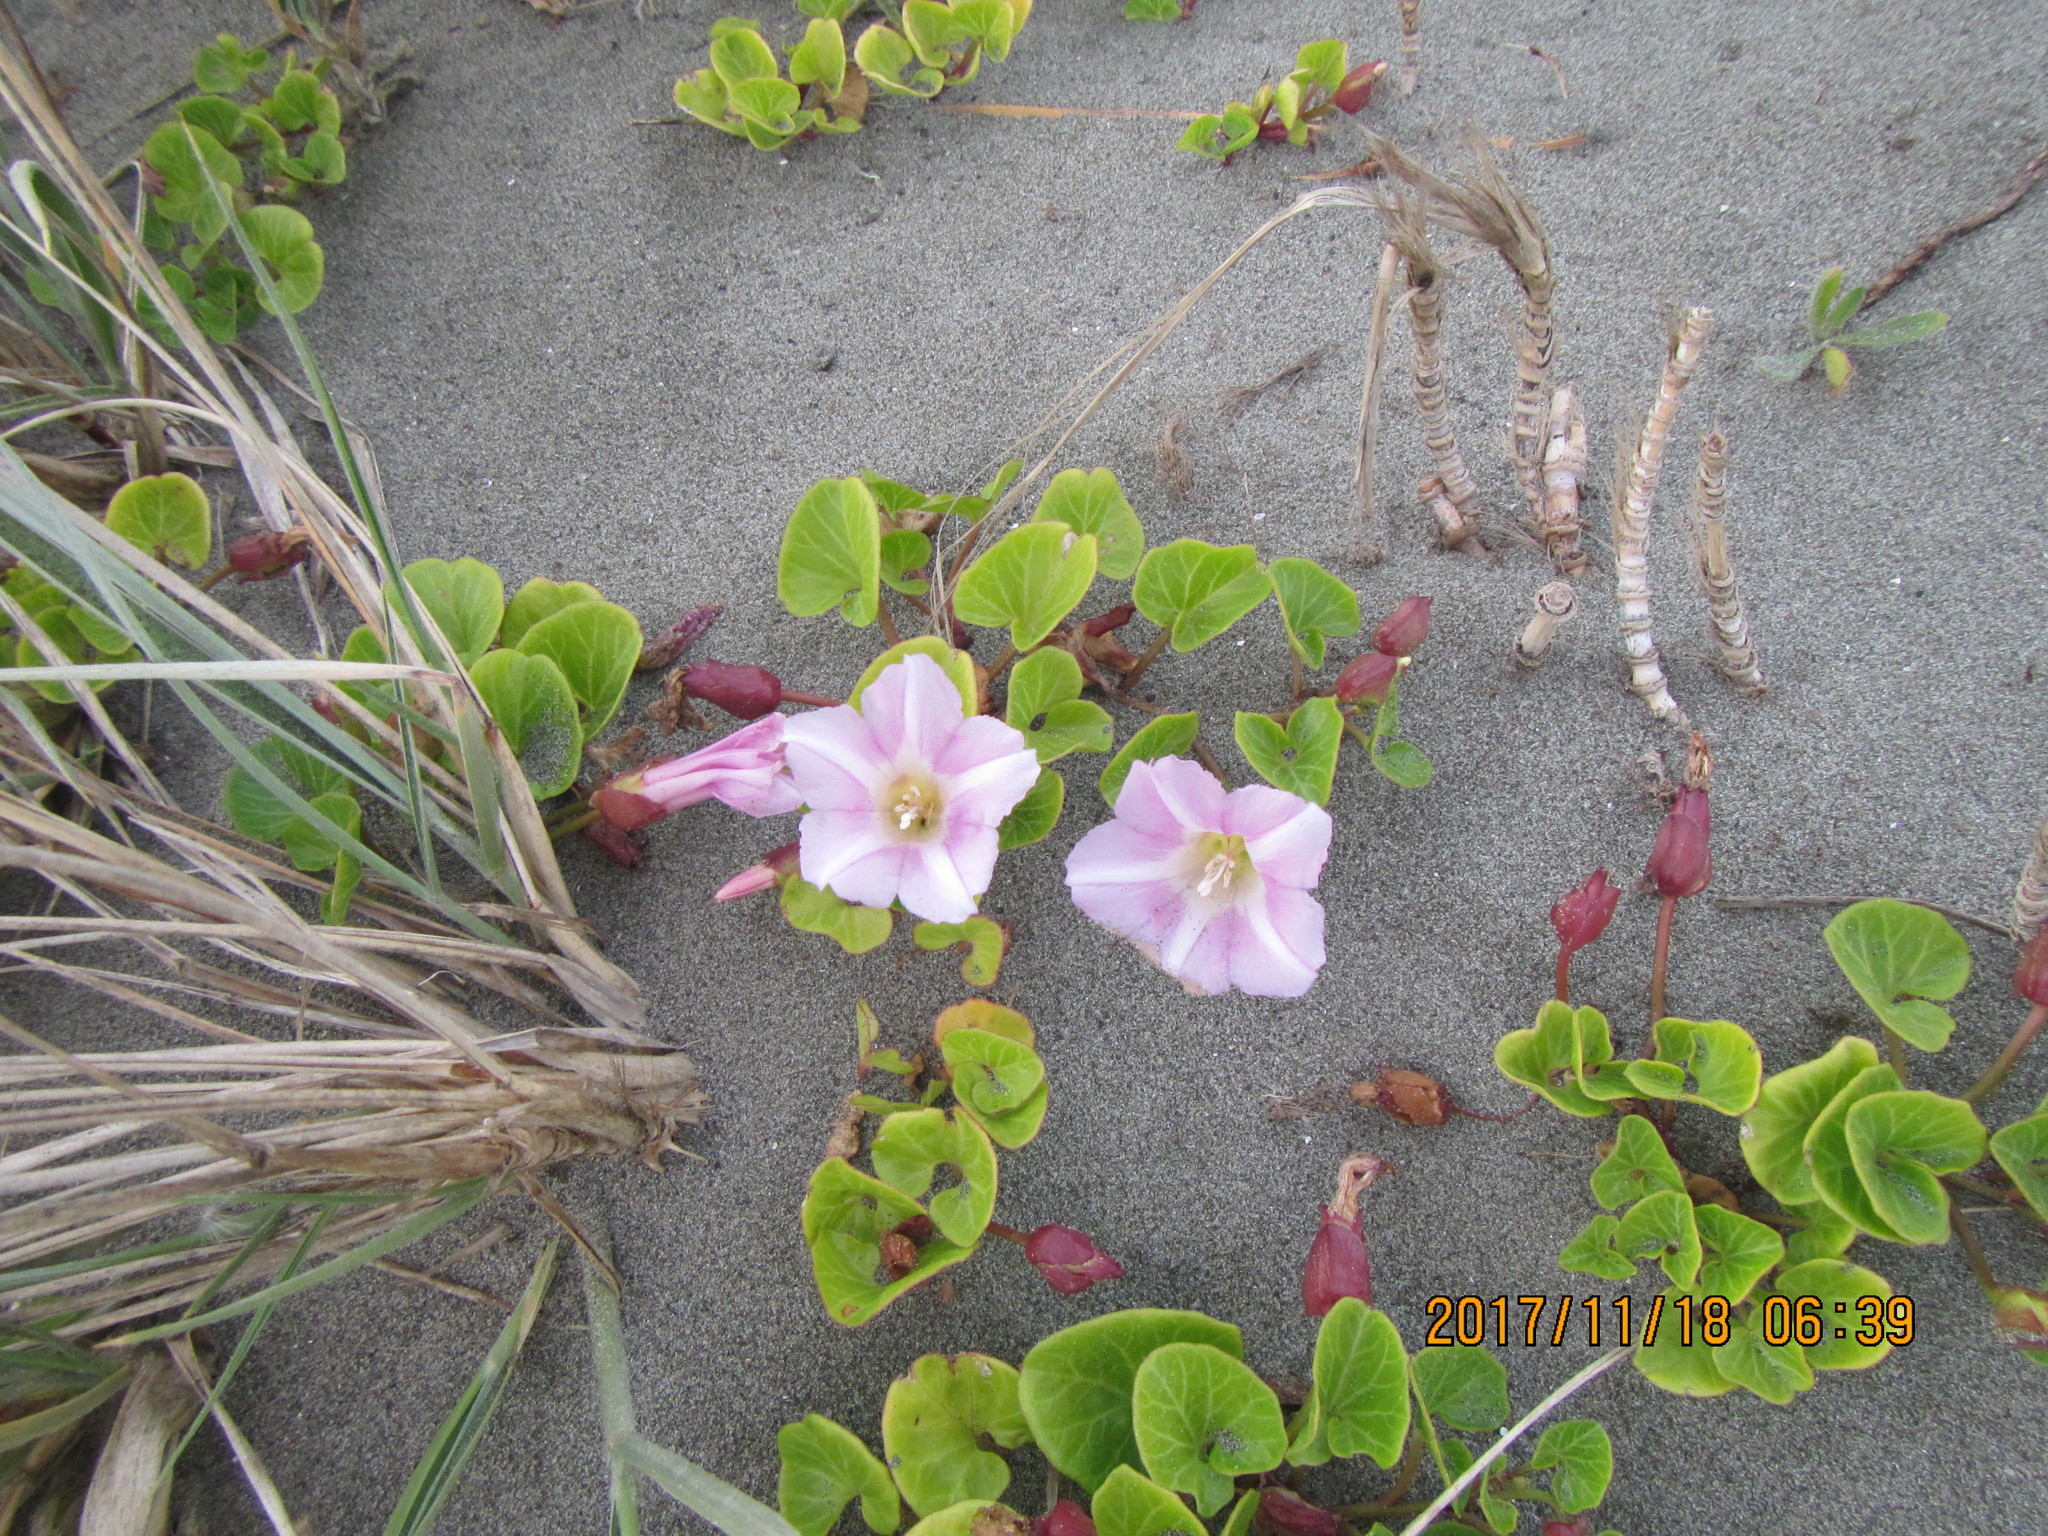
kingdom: Plantae
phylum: Tracheophyta
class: Magnoliopsida
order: Solanales
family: Convolvulaceae
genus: Calystegia
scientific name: Calystegia soldanella
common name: Sea bindweed
